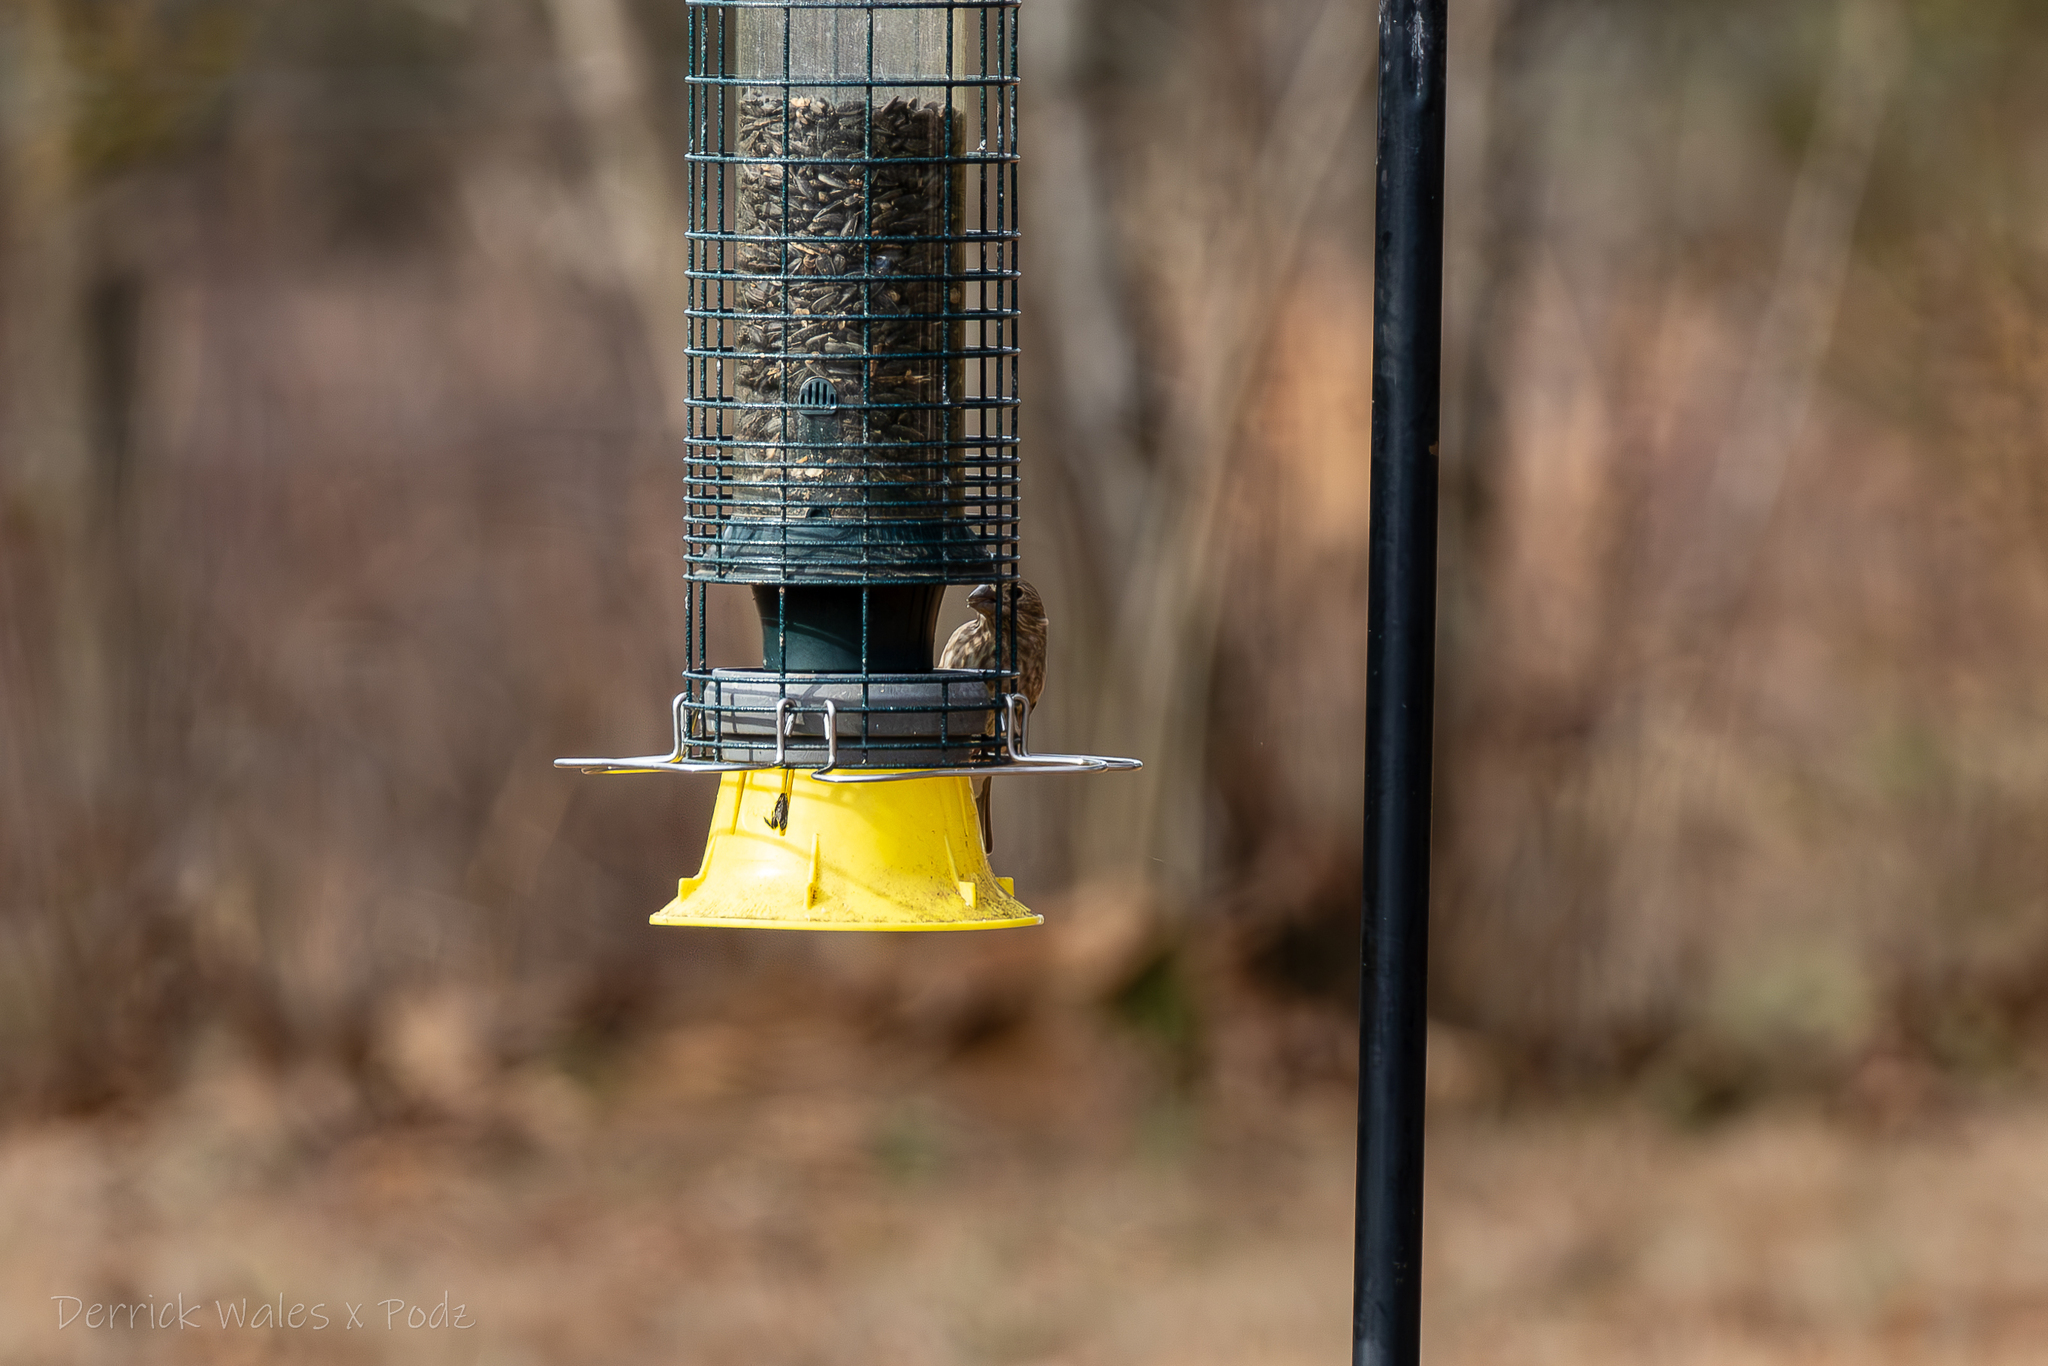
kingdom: Animalia
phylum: Chordata
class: Aves
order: Passeriformes
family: Fringillidae
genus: Haemorhous
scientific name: Haemorhous mexicanus
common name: House finch
